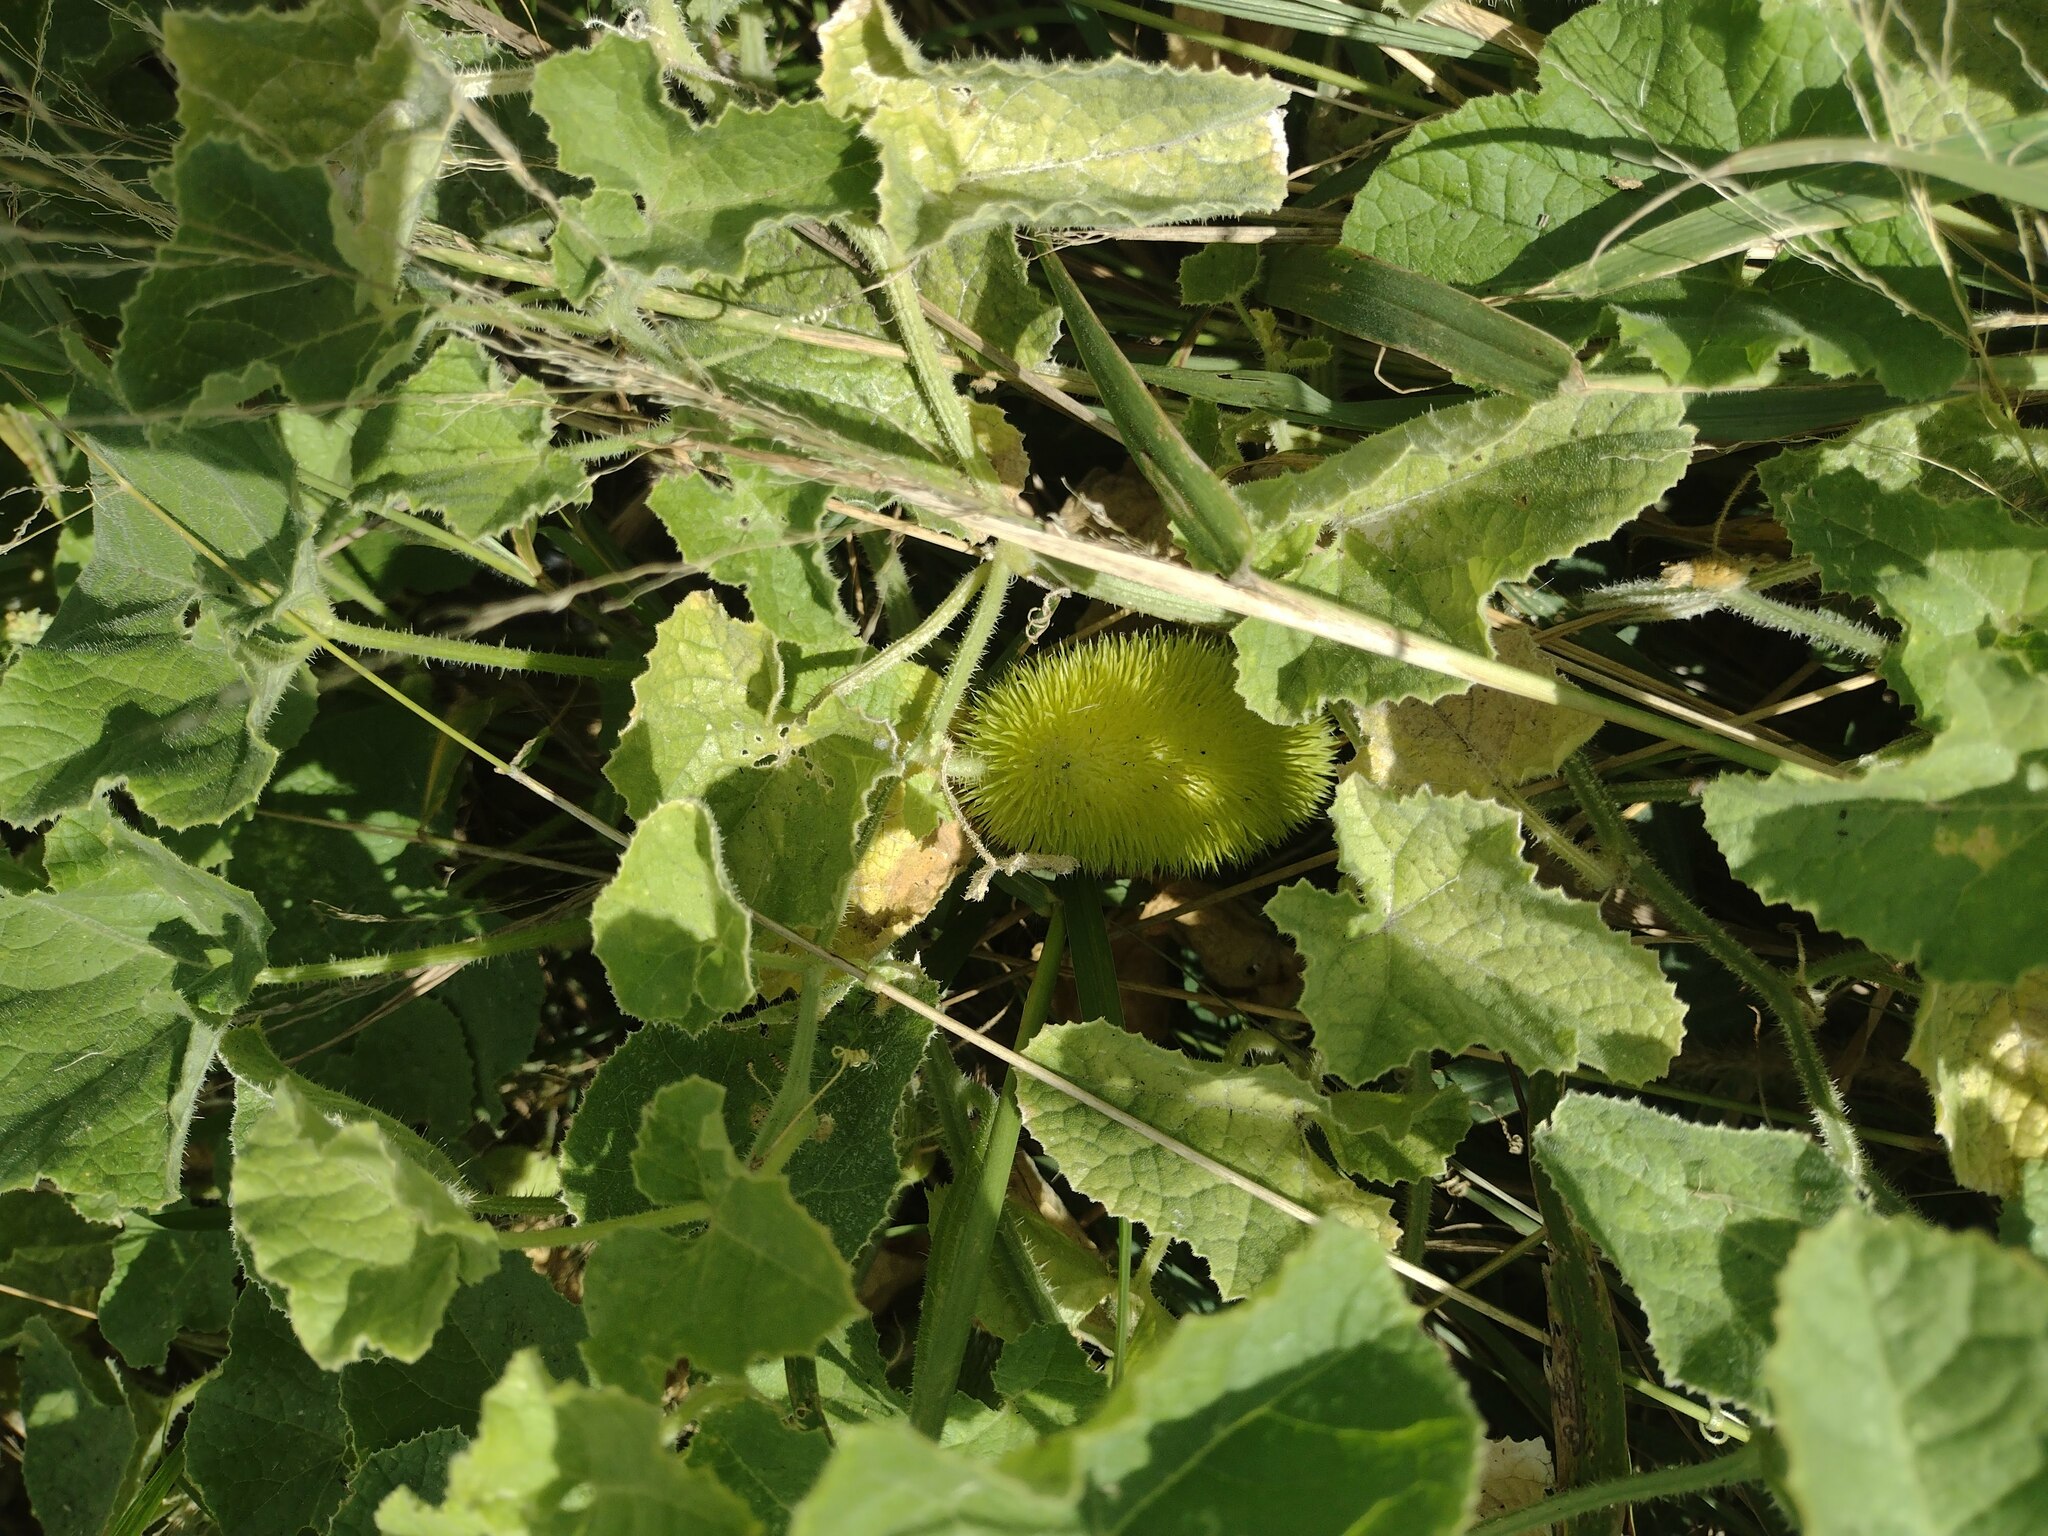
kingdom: Plantae
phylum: Tracheophyta
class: Magnoliopsida
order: Cucurbitales
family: Cucurbitaceae
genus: Cucumis
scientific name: Cucumis dipsaceus
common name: Hedgehog gourd
